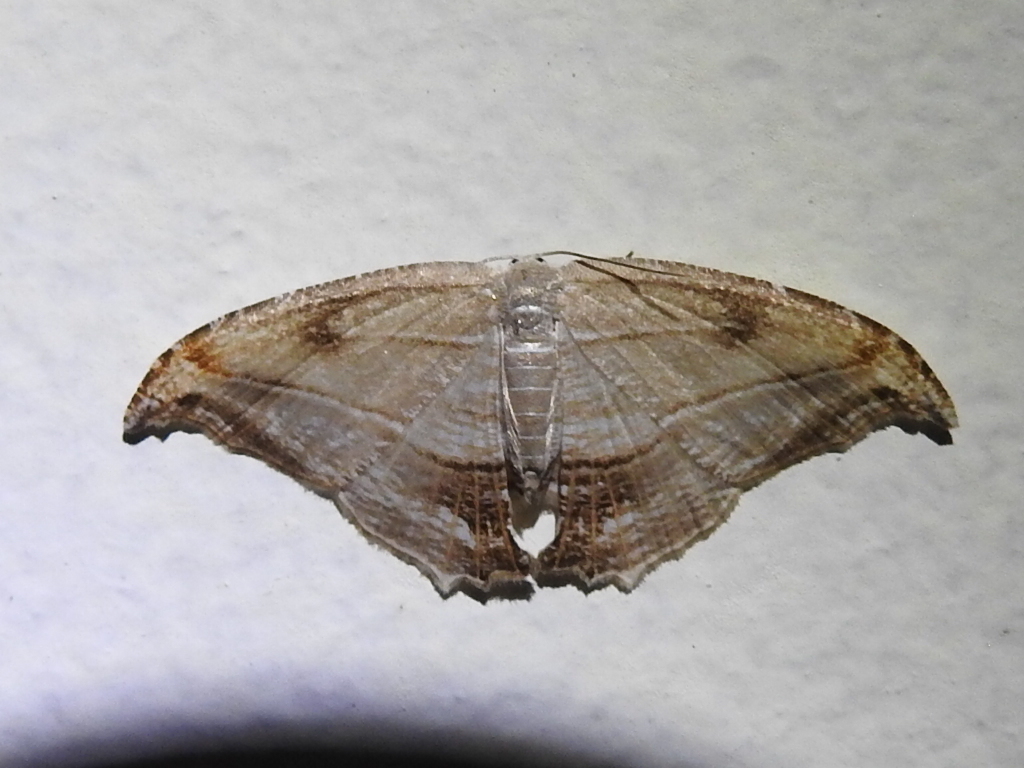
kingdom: Animalia
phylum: Arthropoda
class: Insecta
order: Lepidoptera
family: Uraniidae
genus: Morphomima
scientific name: Morphomima fulvitacta
